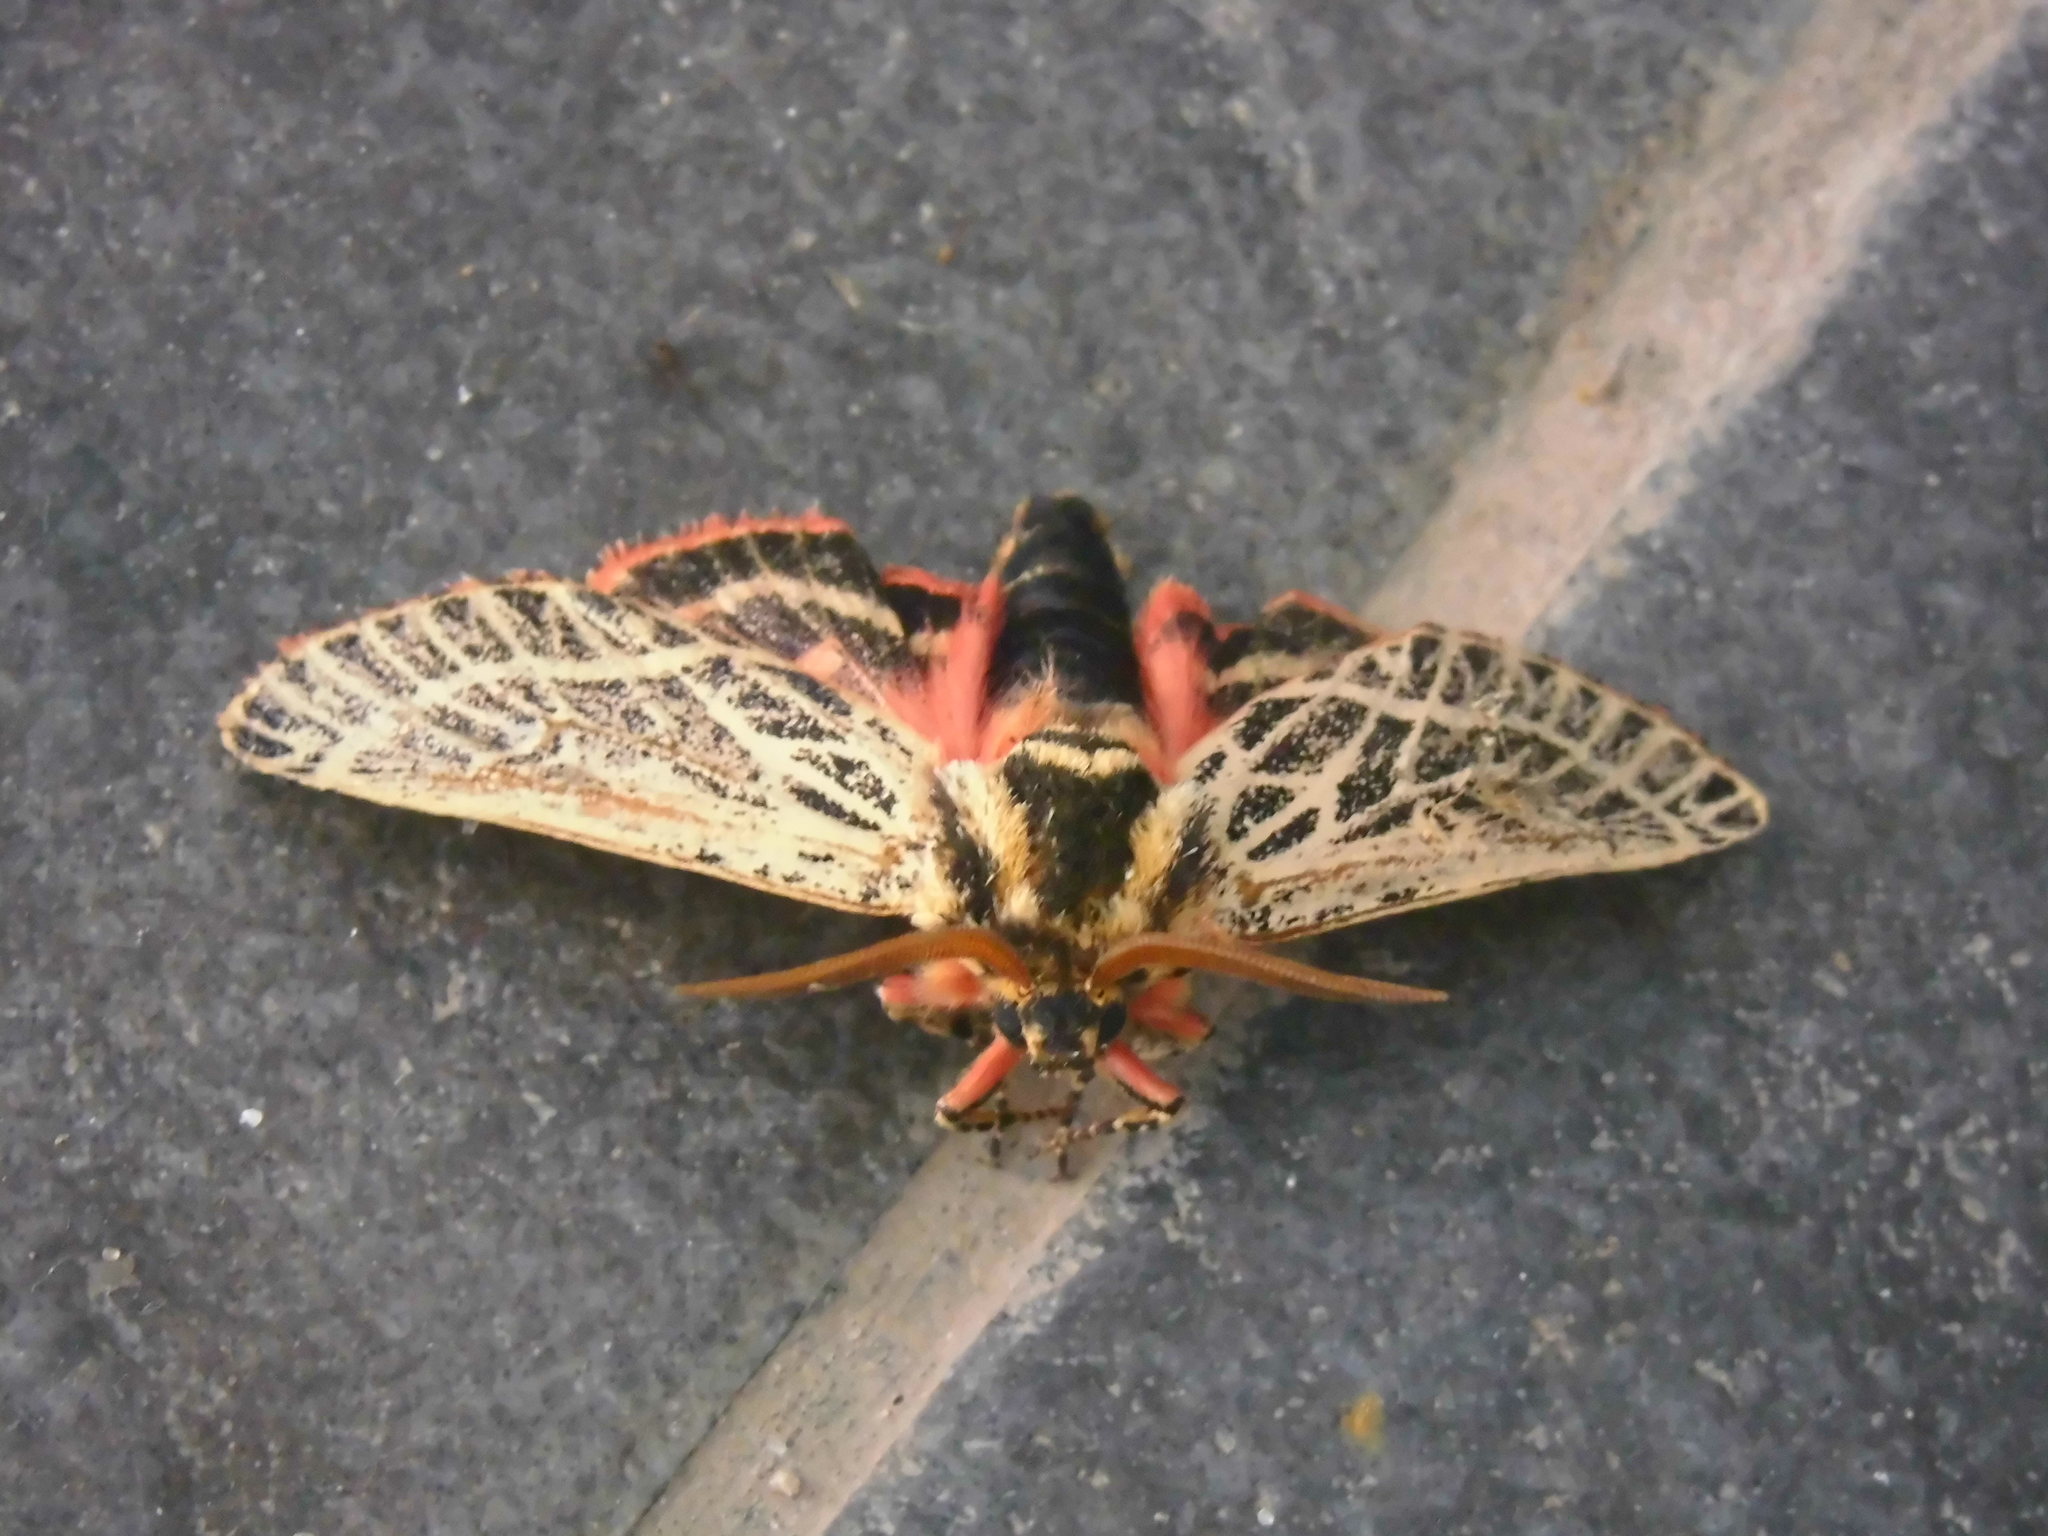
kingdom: Animalia
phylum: Arthropoda
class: Insecta
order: Lepidoptera
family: Noctuidae
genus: Chlanidophora
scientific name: Chlanidophora
